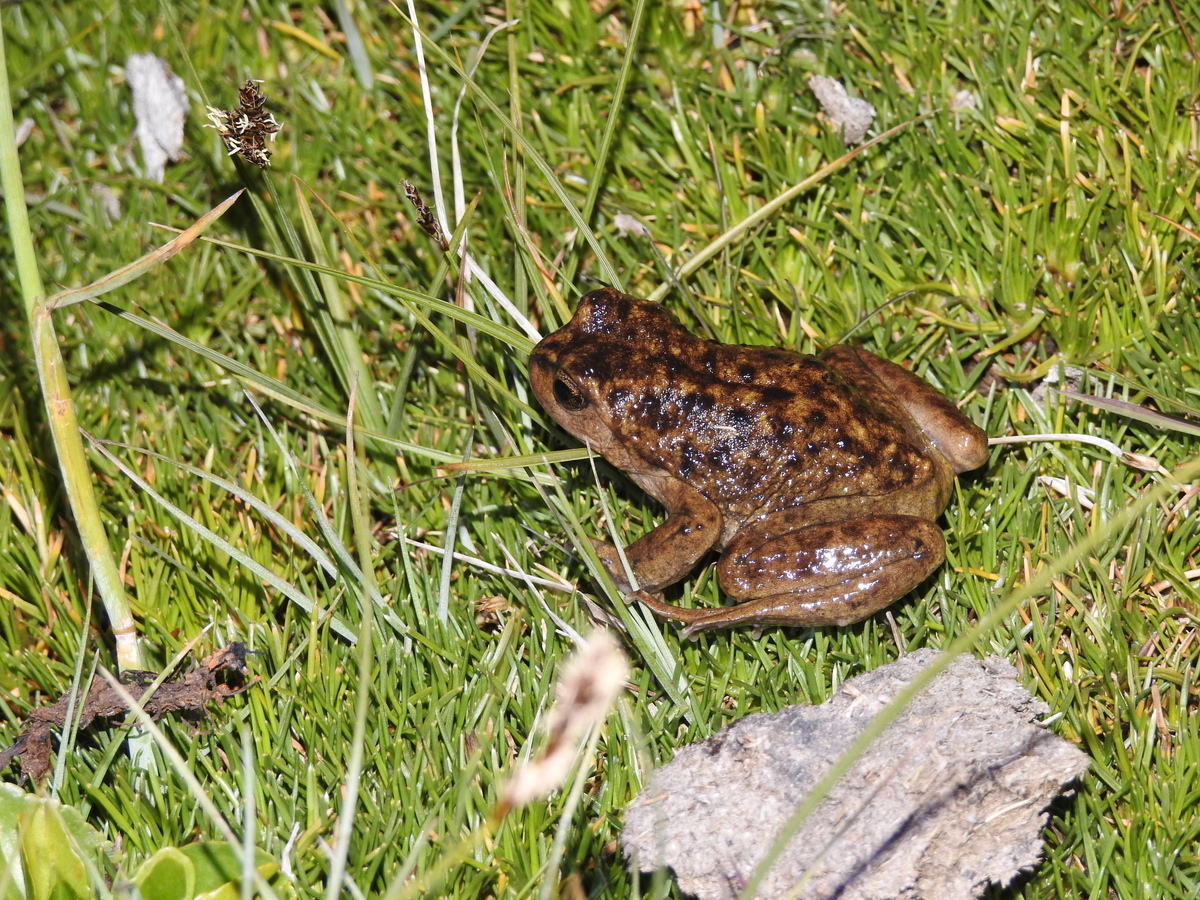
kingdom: Animalia
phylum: Chordata
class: Amphibia
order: Anura
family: Alsodidae
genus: Alsodes
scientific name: Alsodes pehuenche
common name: Pehuenche spiny-chest frog
